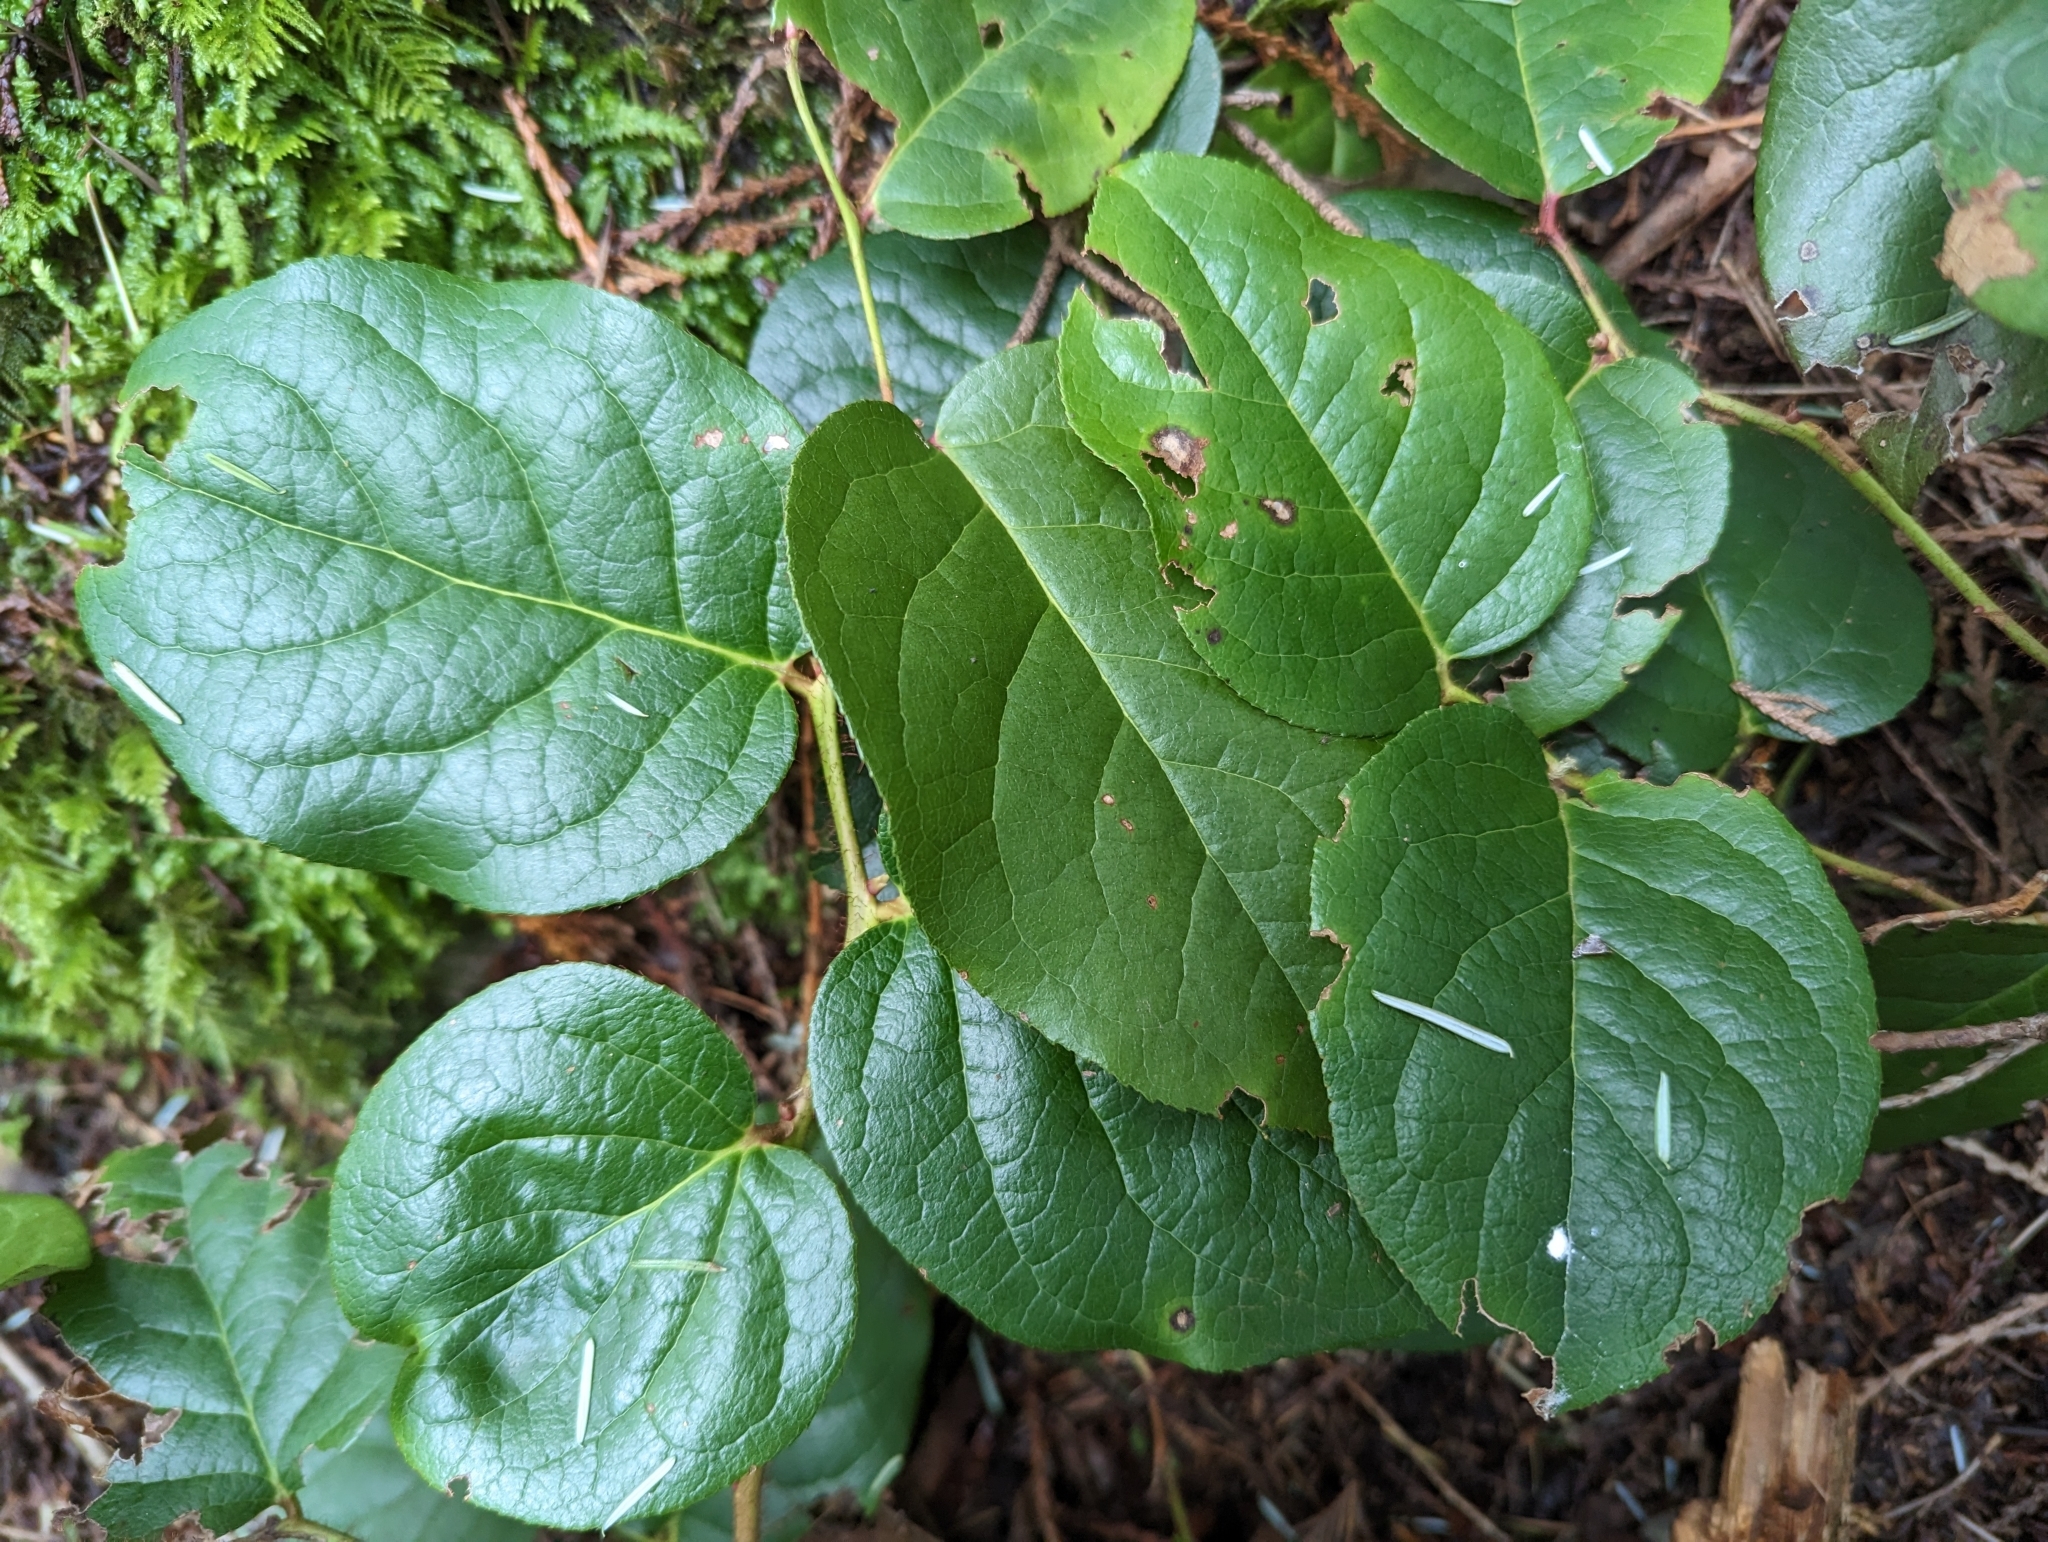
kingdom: Plantae
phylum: Tracheophyta
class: Magnoliopsida
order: Ericales
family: Ericaceae
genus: Gaultheria
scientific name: Gaultheria shallon
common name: Shallon
